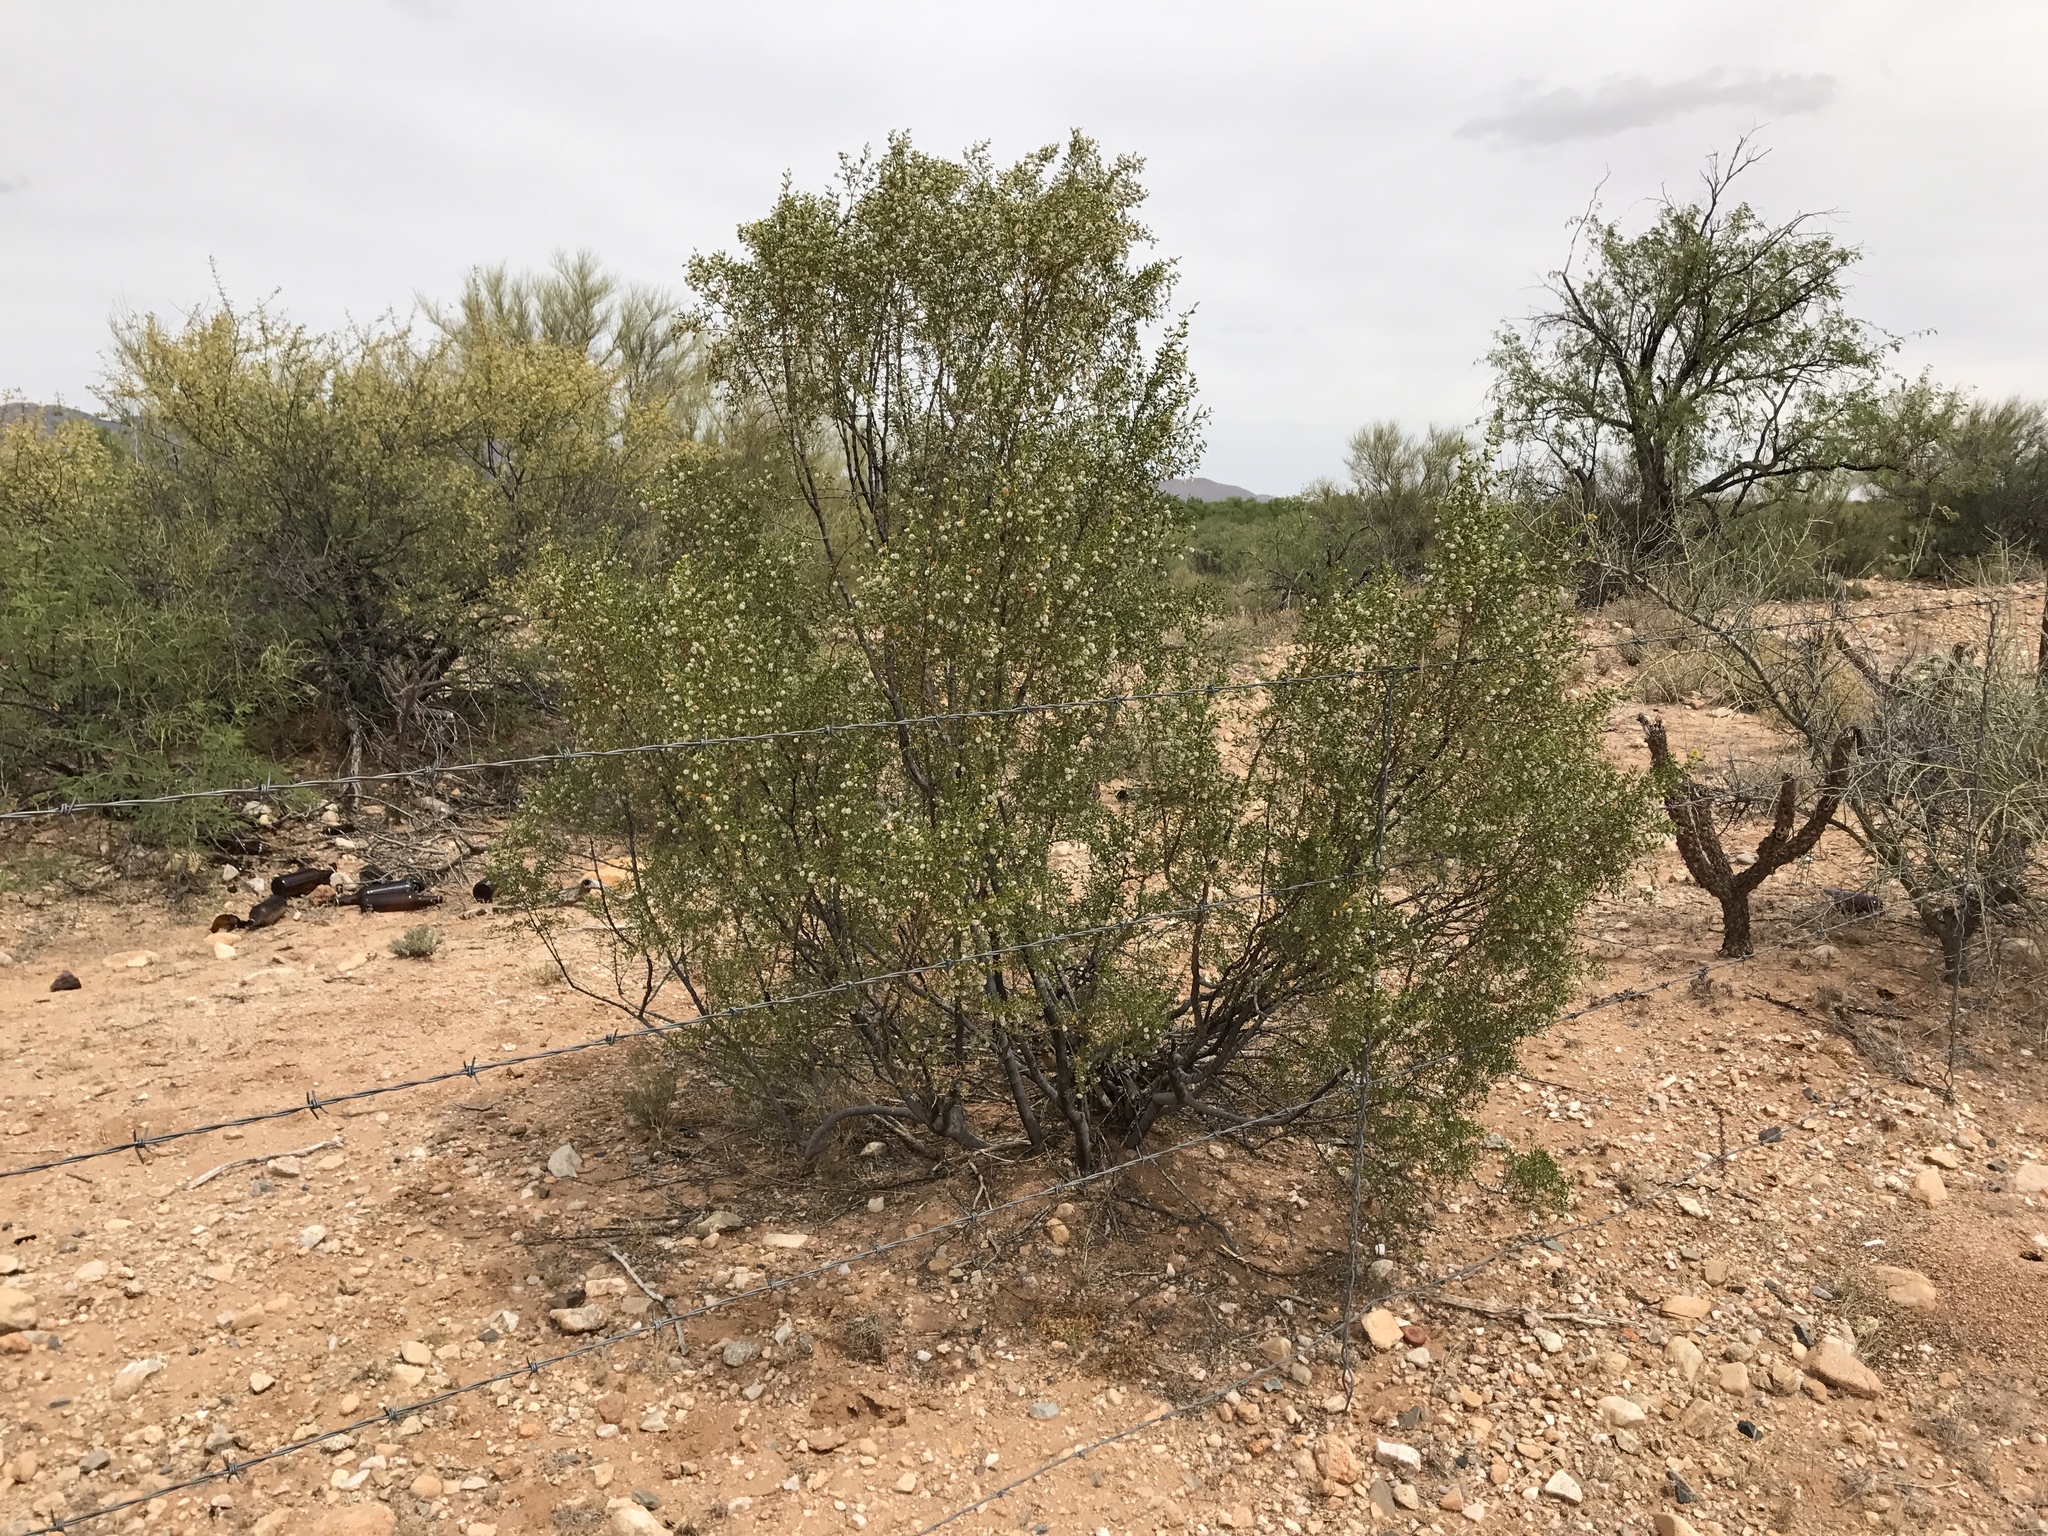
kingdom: Plantae
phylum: Tracheophyta
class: Magnoliopsida
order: Zygophyllales
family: Zygophyllaceae
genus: Larrea
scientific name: Larrea tridentata
